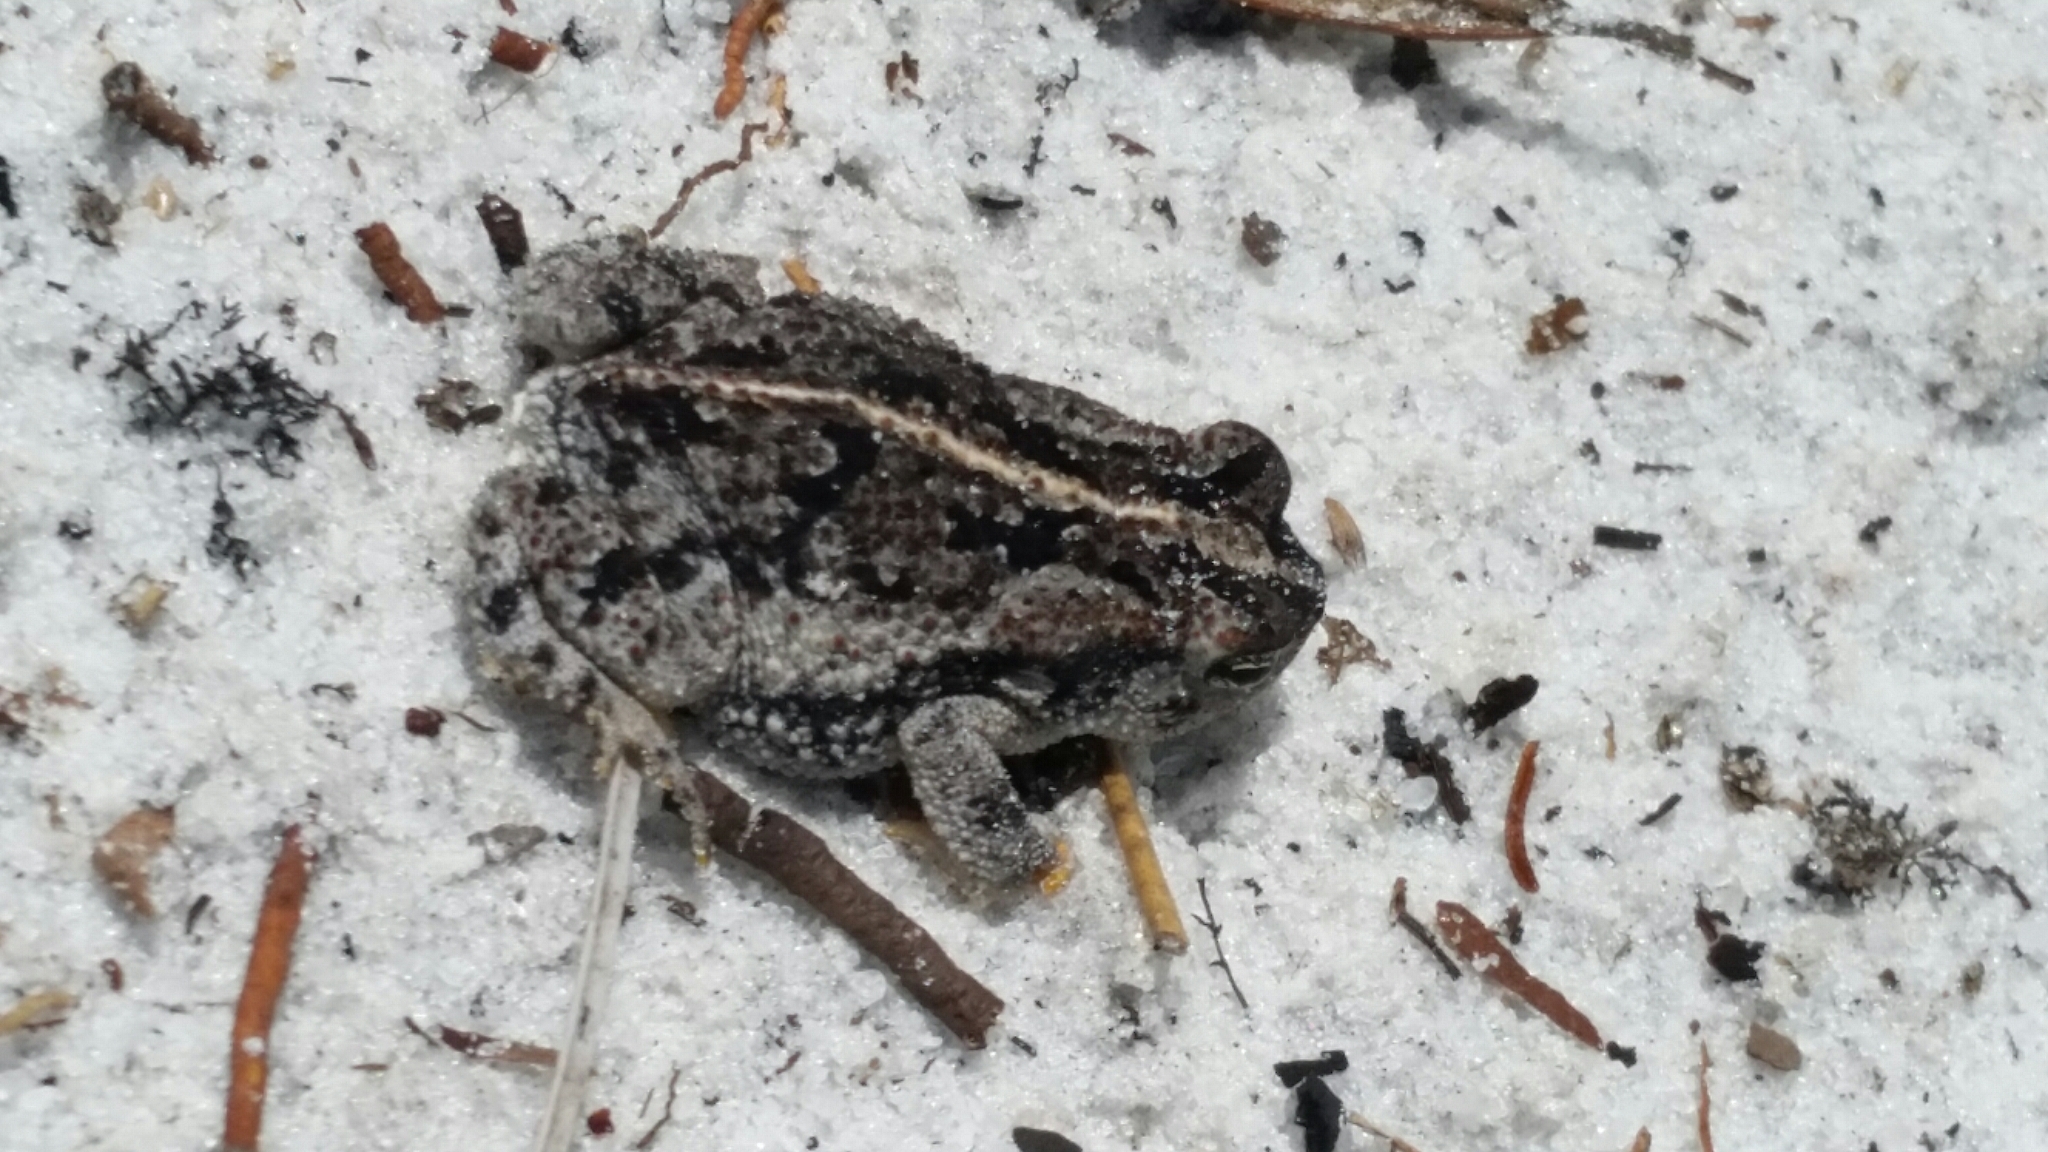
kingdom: Animalia
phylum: Chordata
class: Amphibia
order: Anura
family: Bufonidae
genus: Anaxyrus
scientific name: Anaxyrus quercicus
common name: Oak toad
